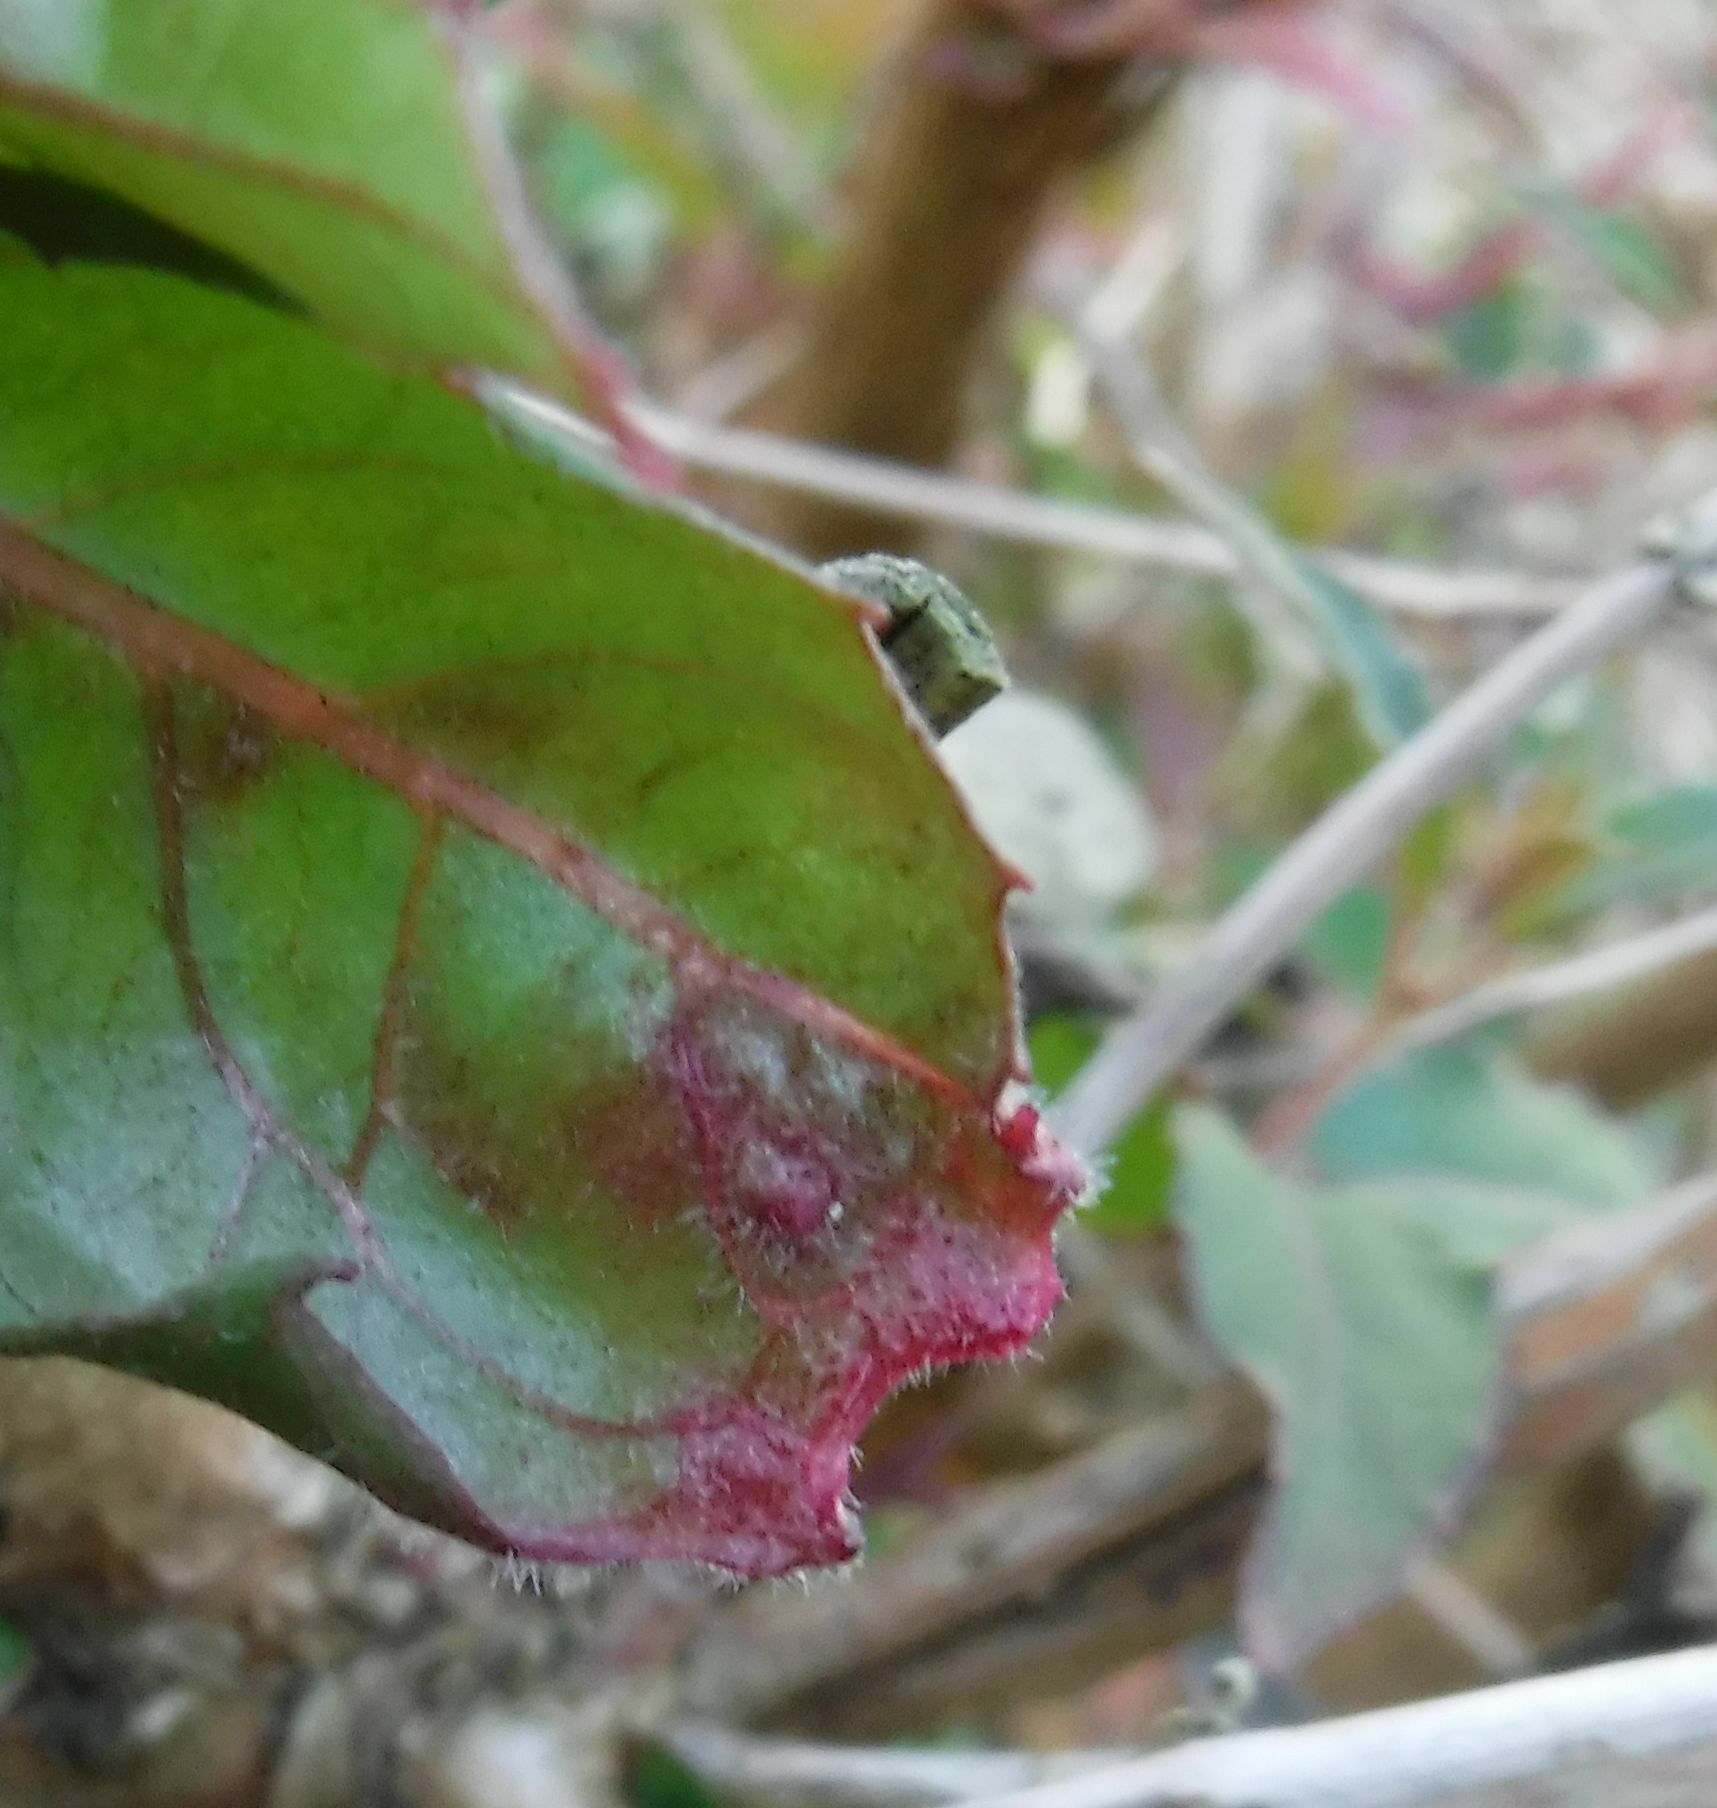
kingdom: Animalia
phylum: Arthropoda
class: Arachnida
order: Trombidiformes
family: Eriophyidae
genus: Aculops
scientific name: Aculops fuchsiae
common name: Fuchsia gall mite
